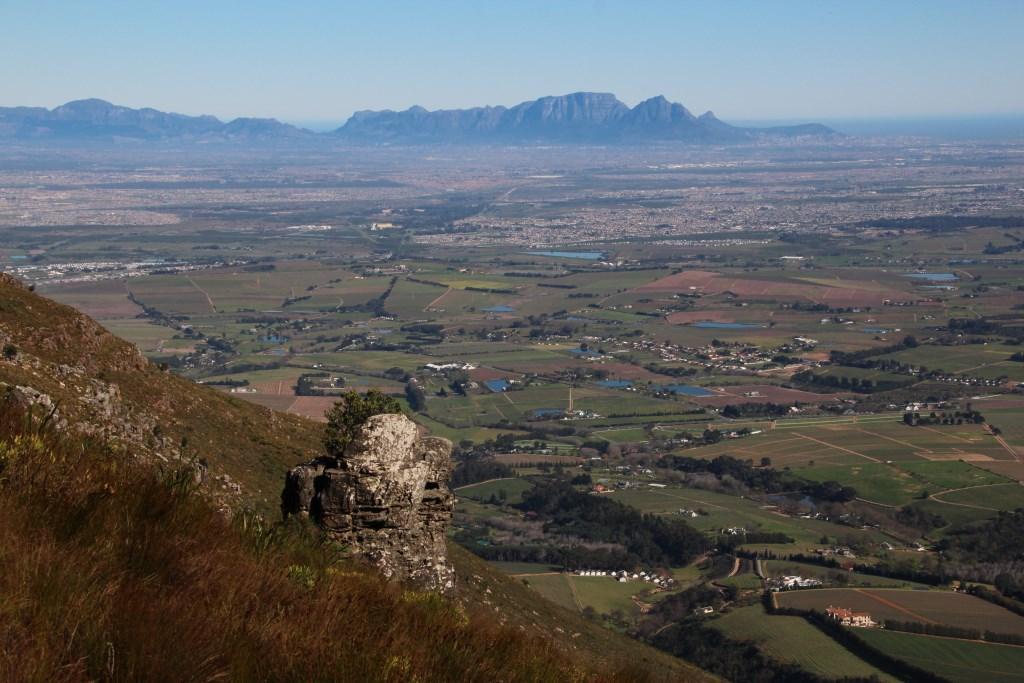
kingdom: Plantae
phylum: Tracheophyta
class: Magnoliopsida
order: Proteales
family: Proteaceae
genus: Leucadendron
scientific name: Leucadendron salignum
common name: Common sunshine conebush
